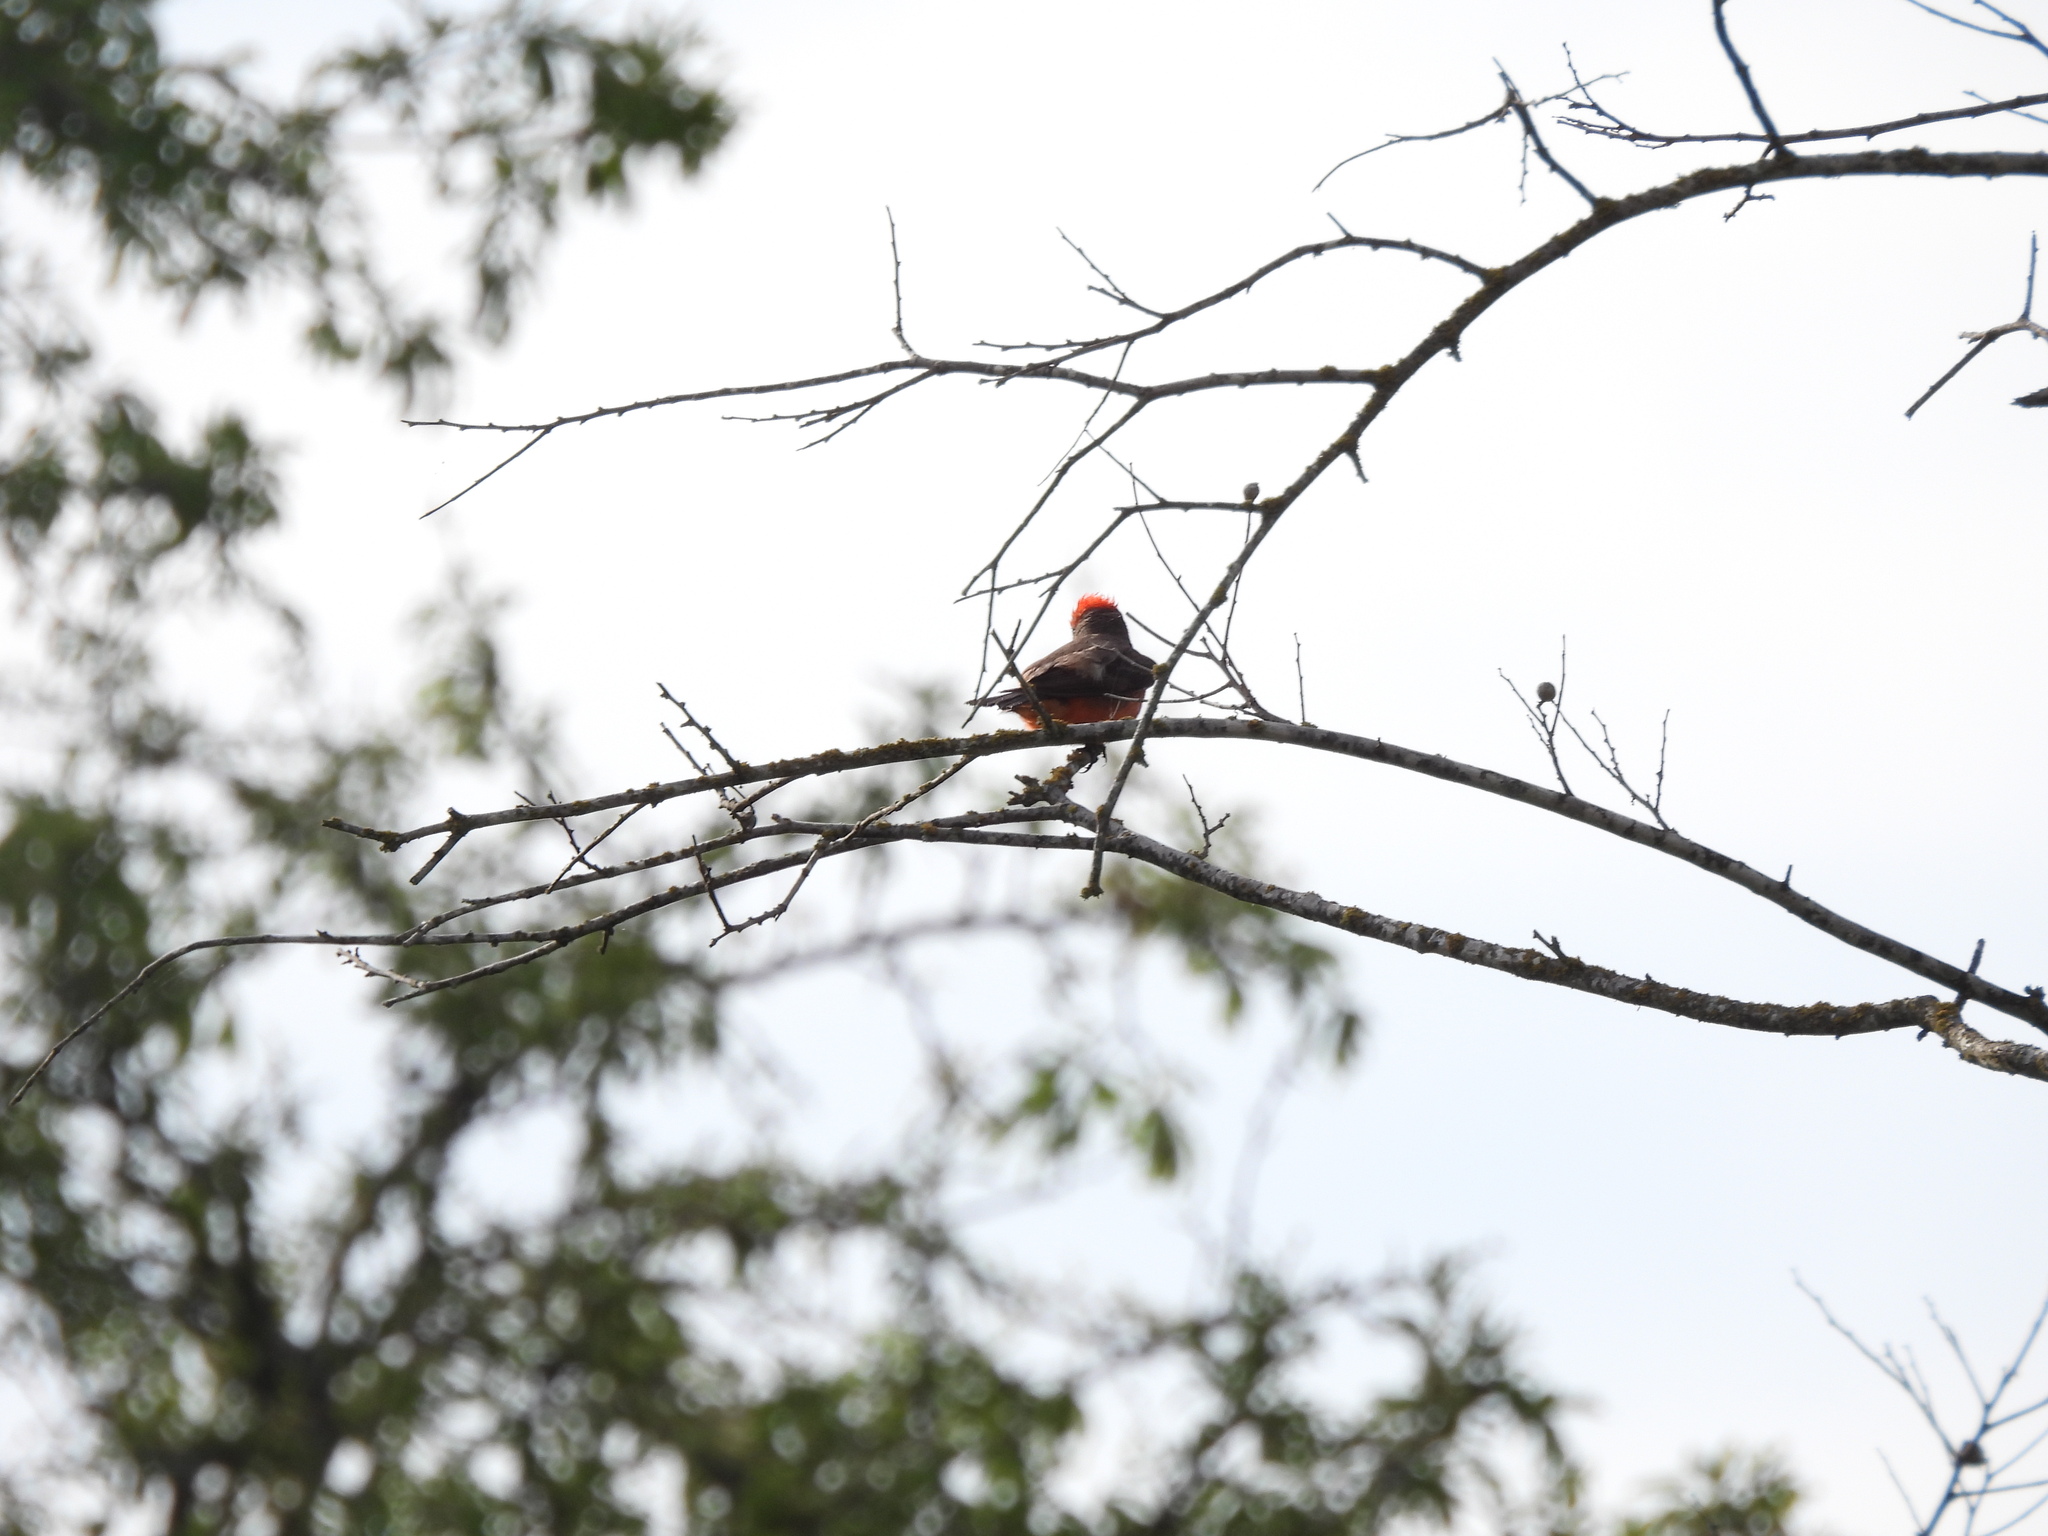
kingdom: Animalia
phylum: Chordata
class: Aves
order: Passeriformes
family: Tyrannidae
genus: Pyrocephalus
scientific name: Pyrocephalus rubinus
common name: Vermilion flycatcher
